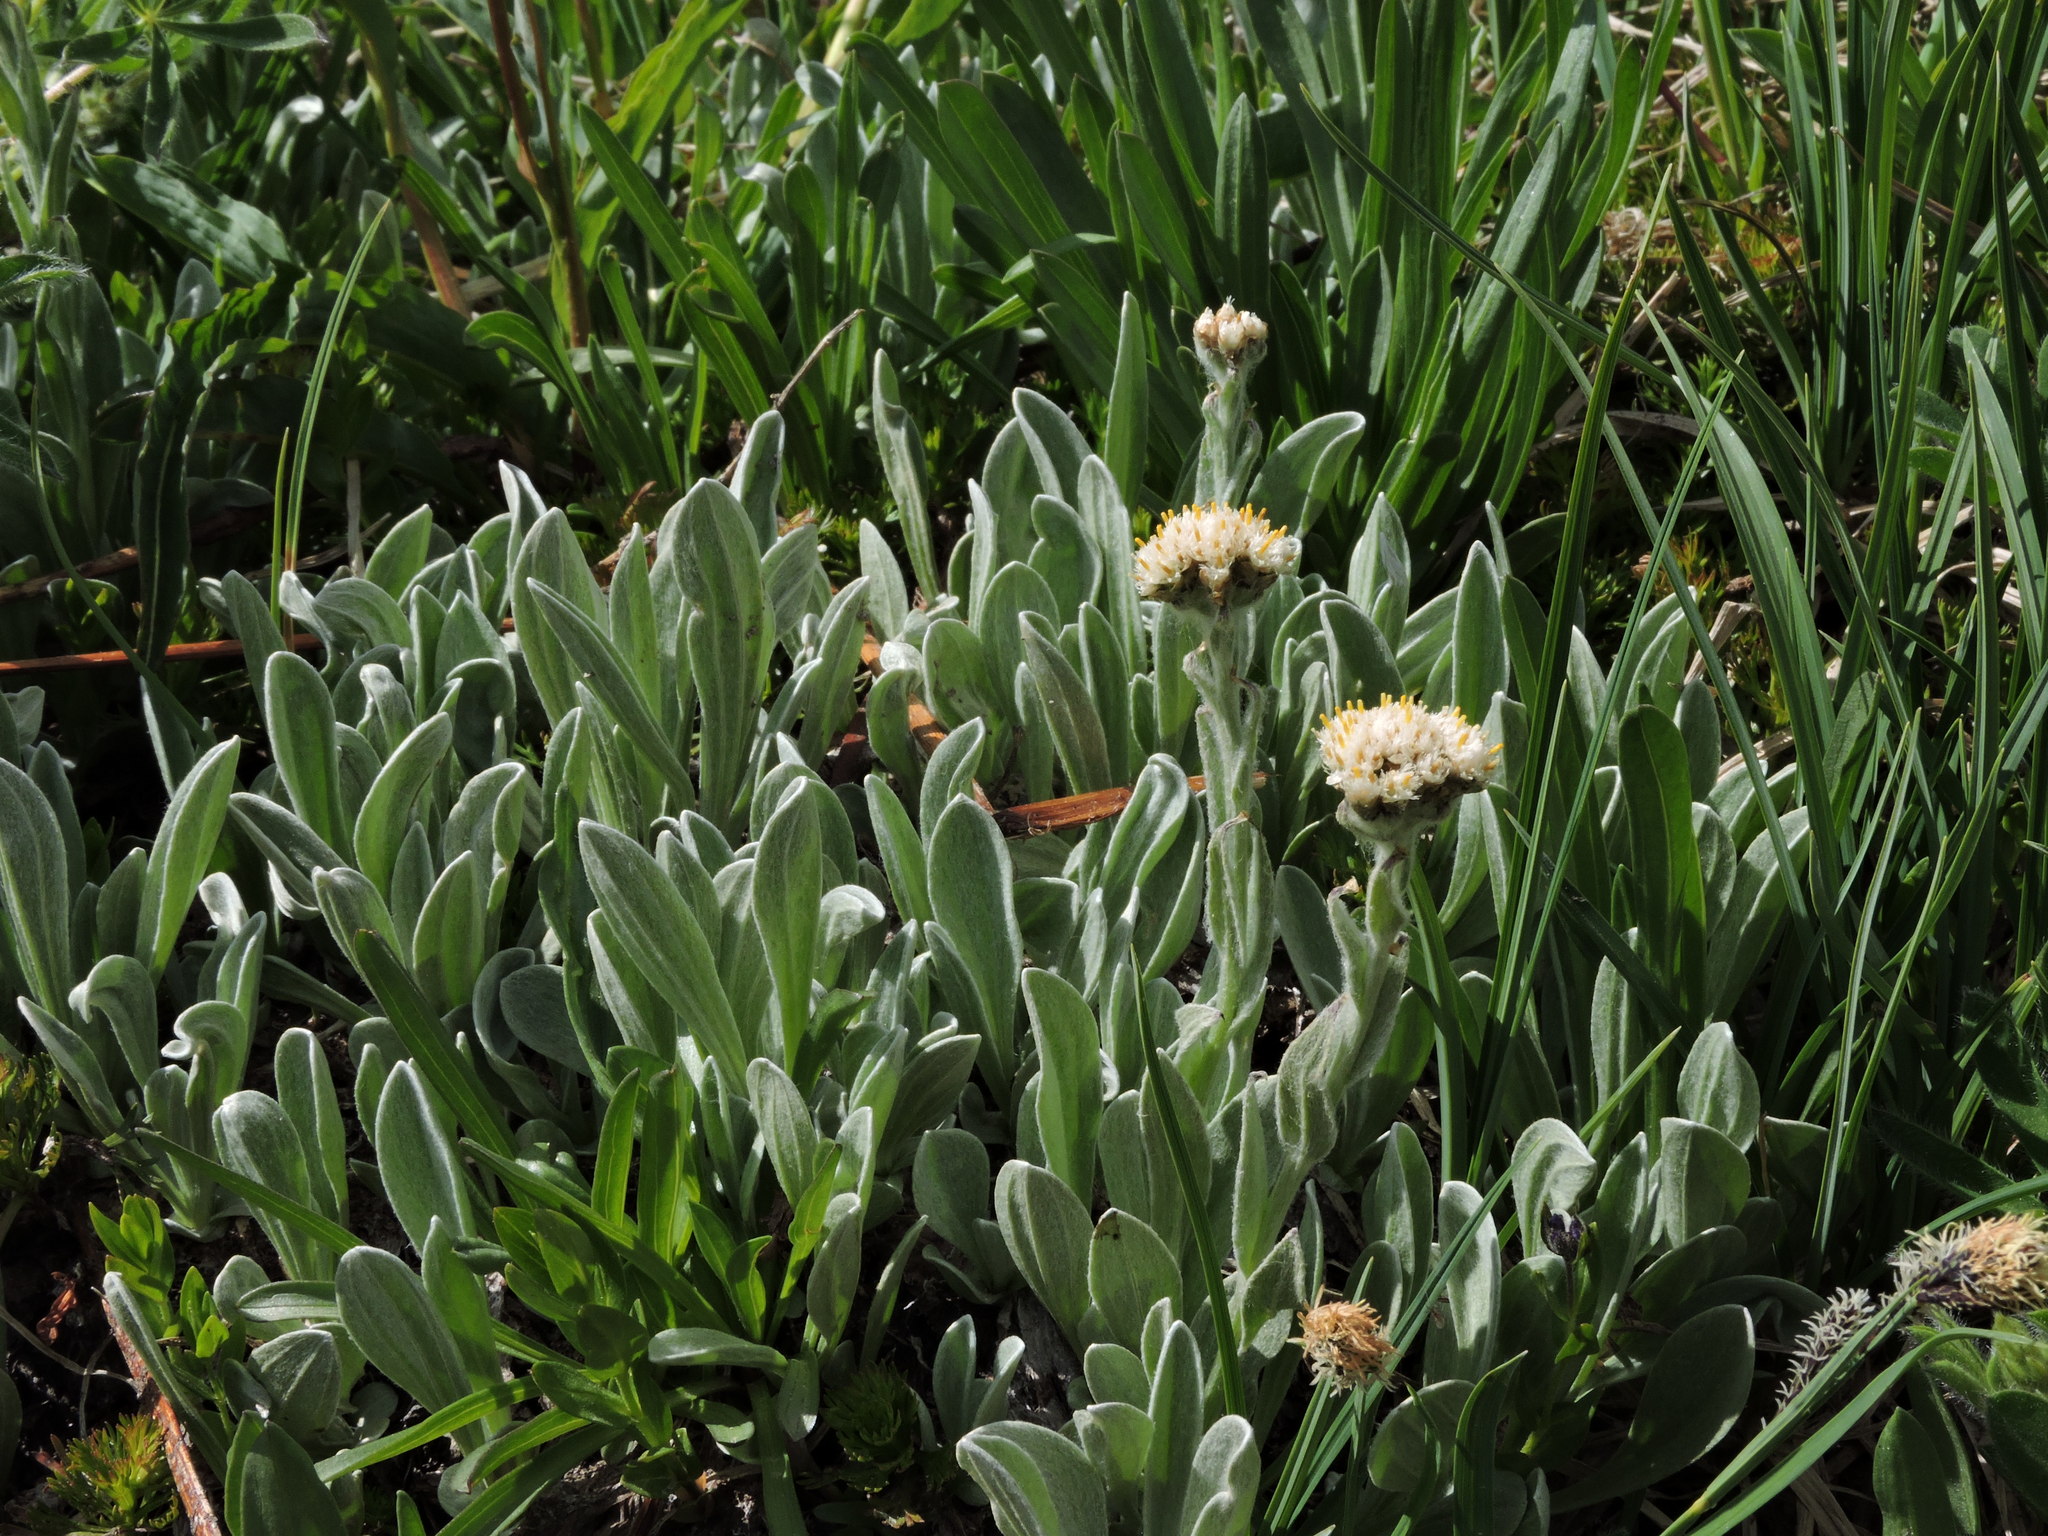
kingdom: Plantae
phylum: Tracheophyta
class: Magnoliopsida
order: Asterales
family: Asteraceae
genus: Antennaria
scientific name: Antennaria lanata
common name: Woolly pussytoes
